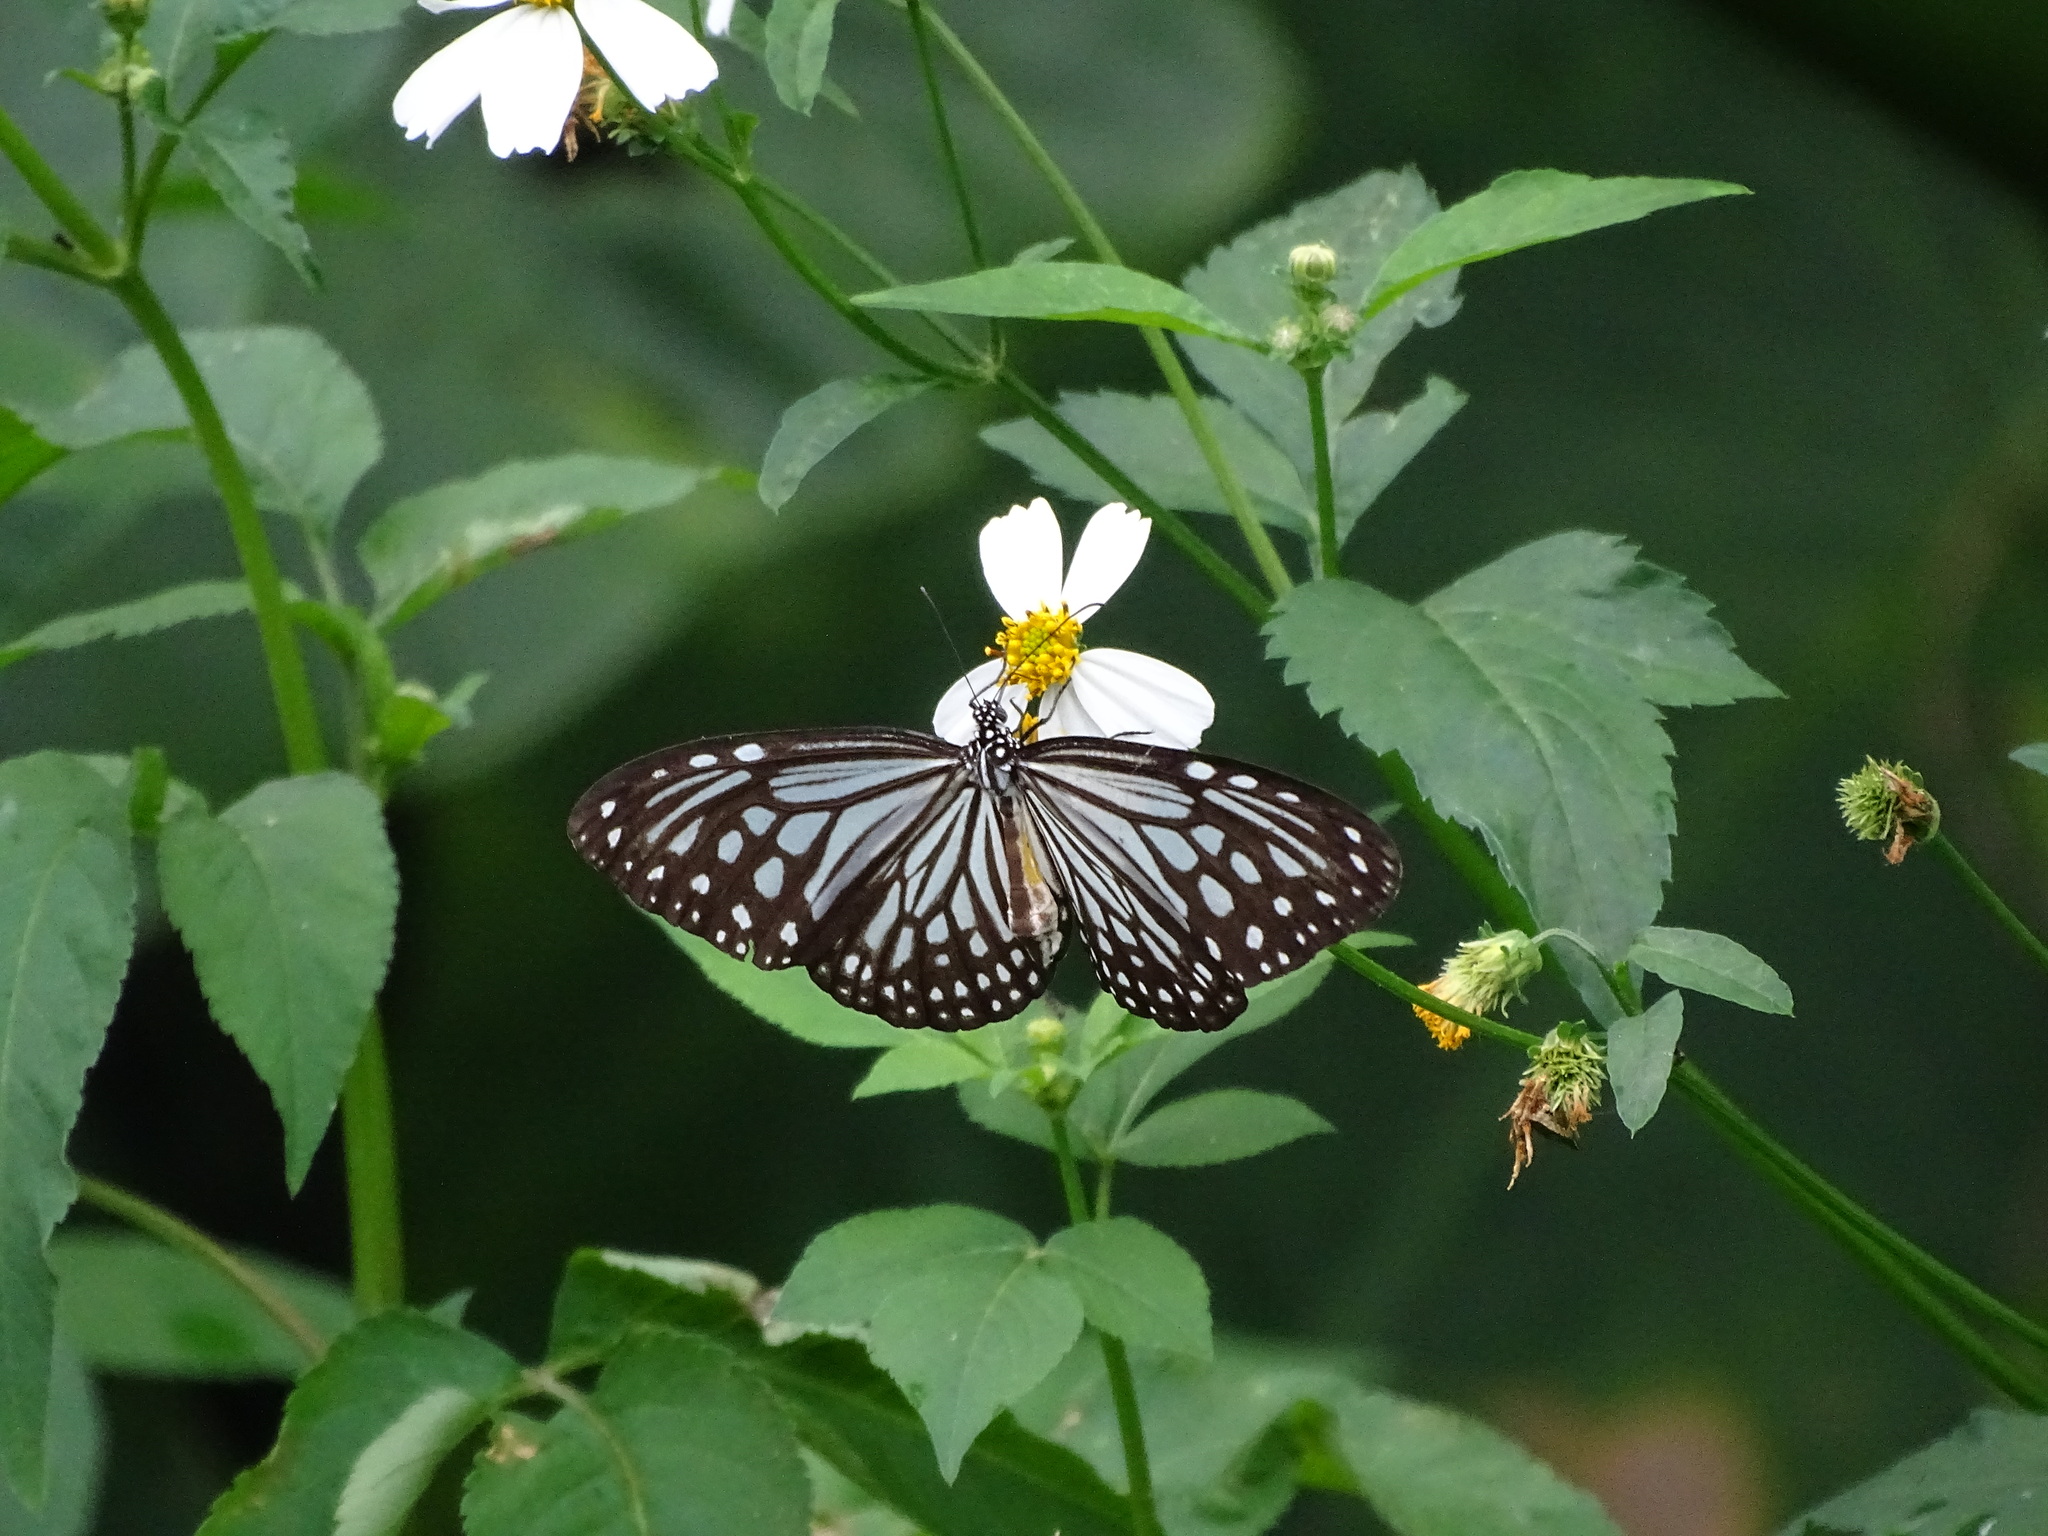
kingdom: Animalia
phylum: Arthropoda
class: Insecta
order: Lepidoptera
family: Nymphalidae
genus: Parantica
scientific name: Parantica aglea
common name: Glassy tiger
